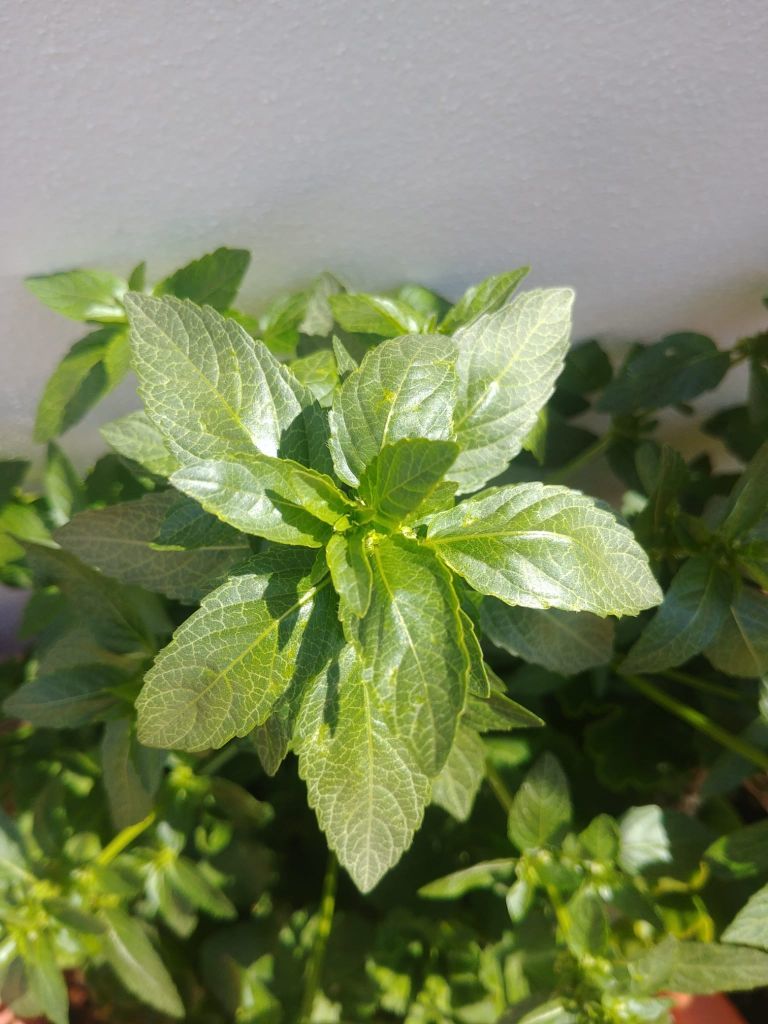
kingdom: Plantae
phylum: Tracheophyta
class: Magnoliopsida
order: Malpighiales
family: Euphorbiaceae
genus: Mercurialis
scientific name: Mercurialis annua
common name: Annual mercury
